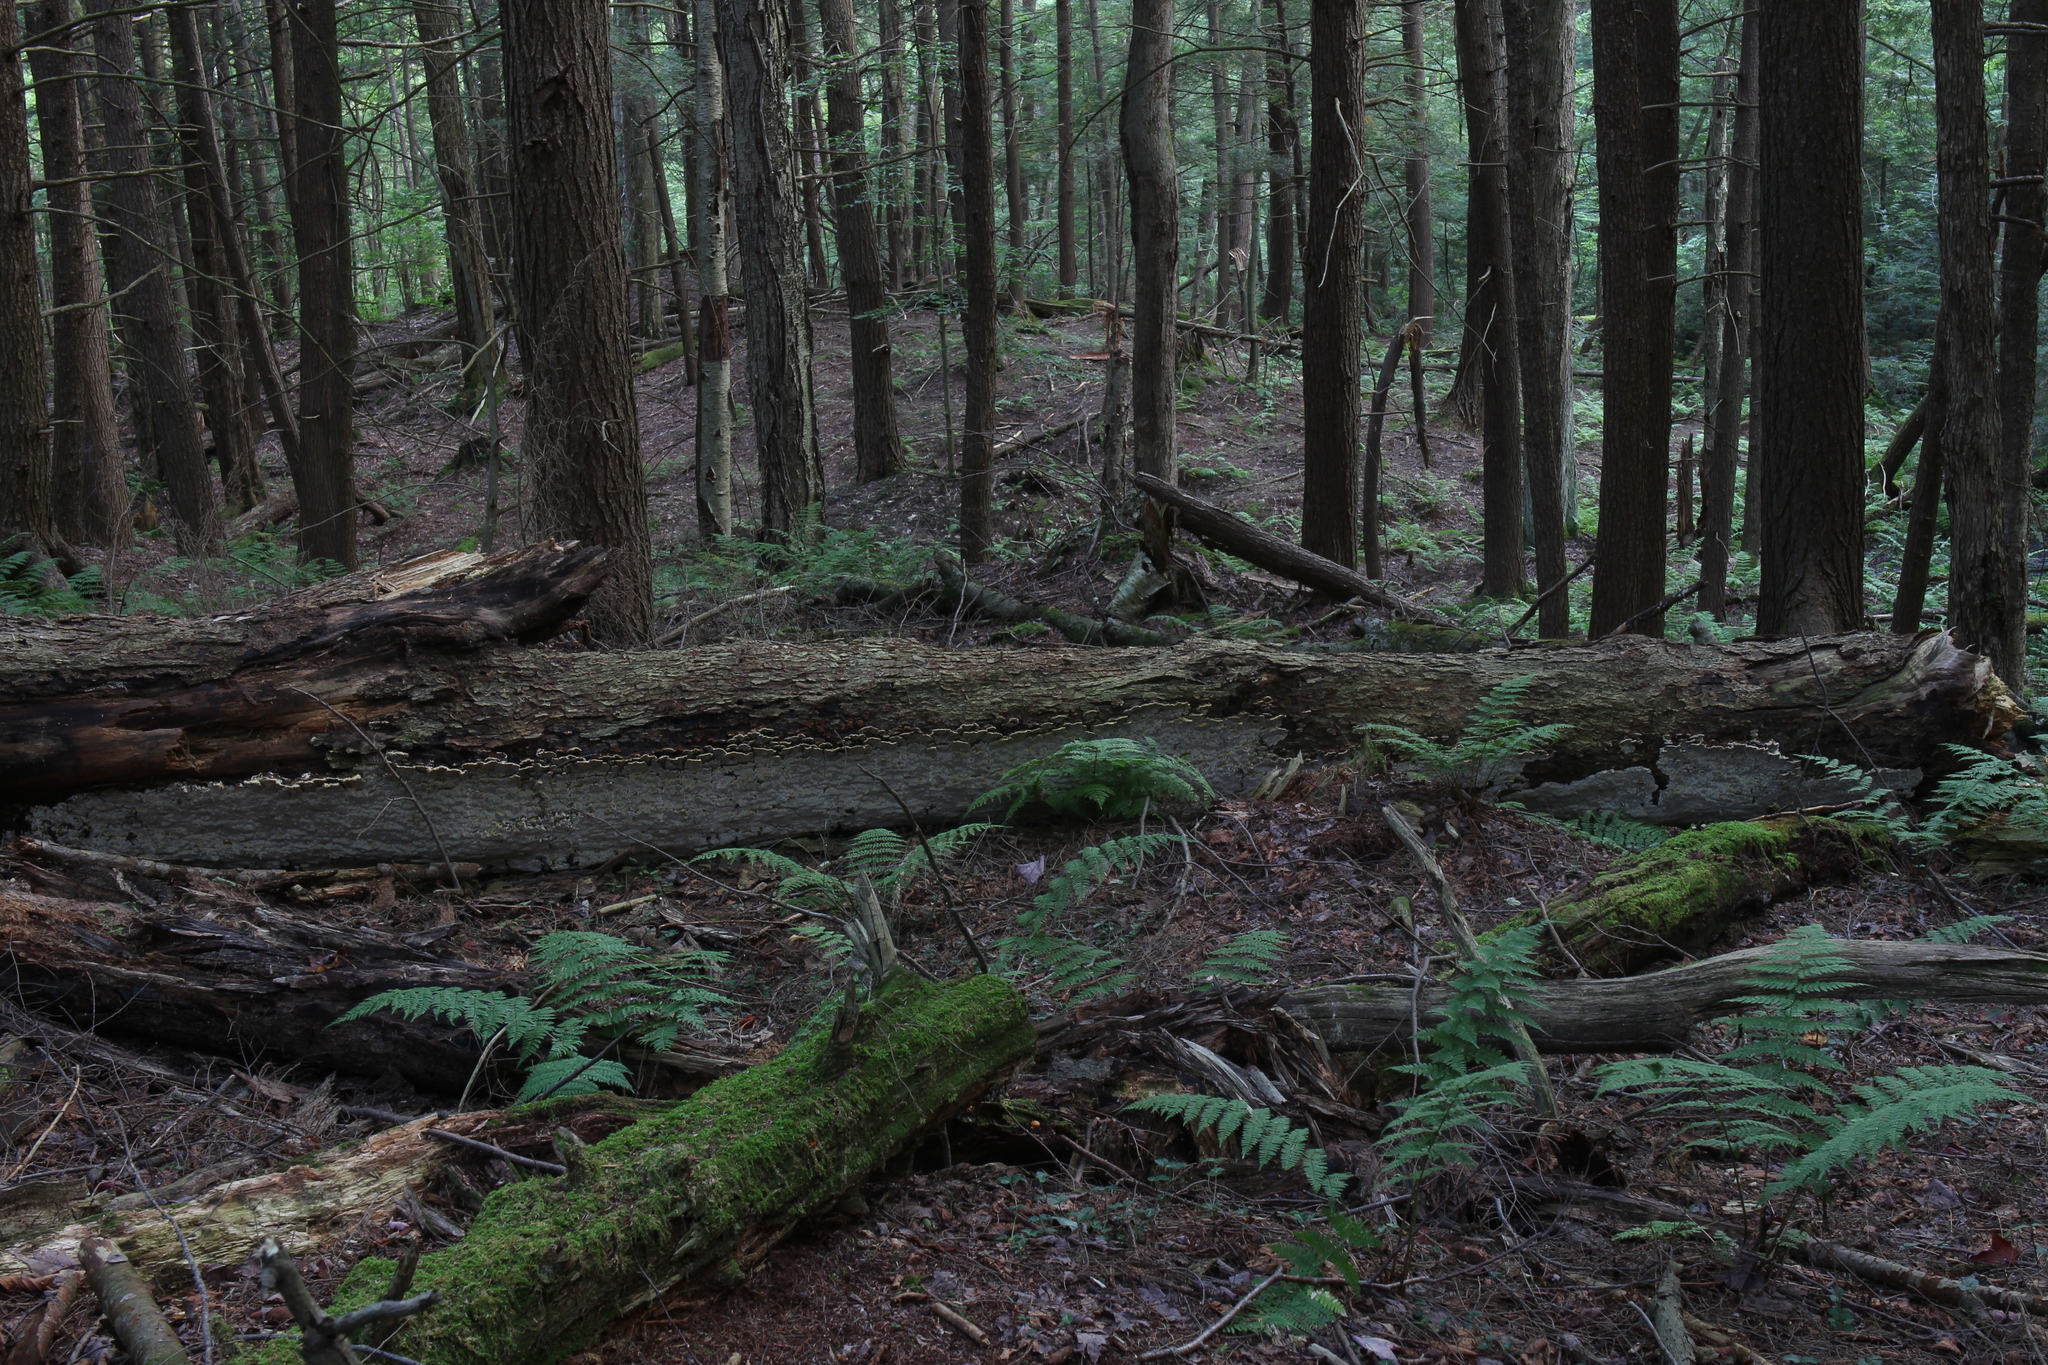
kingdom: Fungi
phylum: Basidiomycota
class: Agaricomycetes
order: Hymenochaetales
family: Hymenochaetaceae
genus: Rigidonotus
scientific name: Rigidonotus glomeratus
